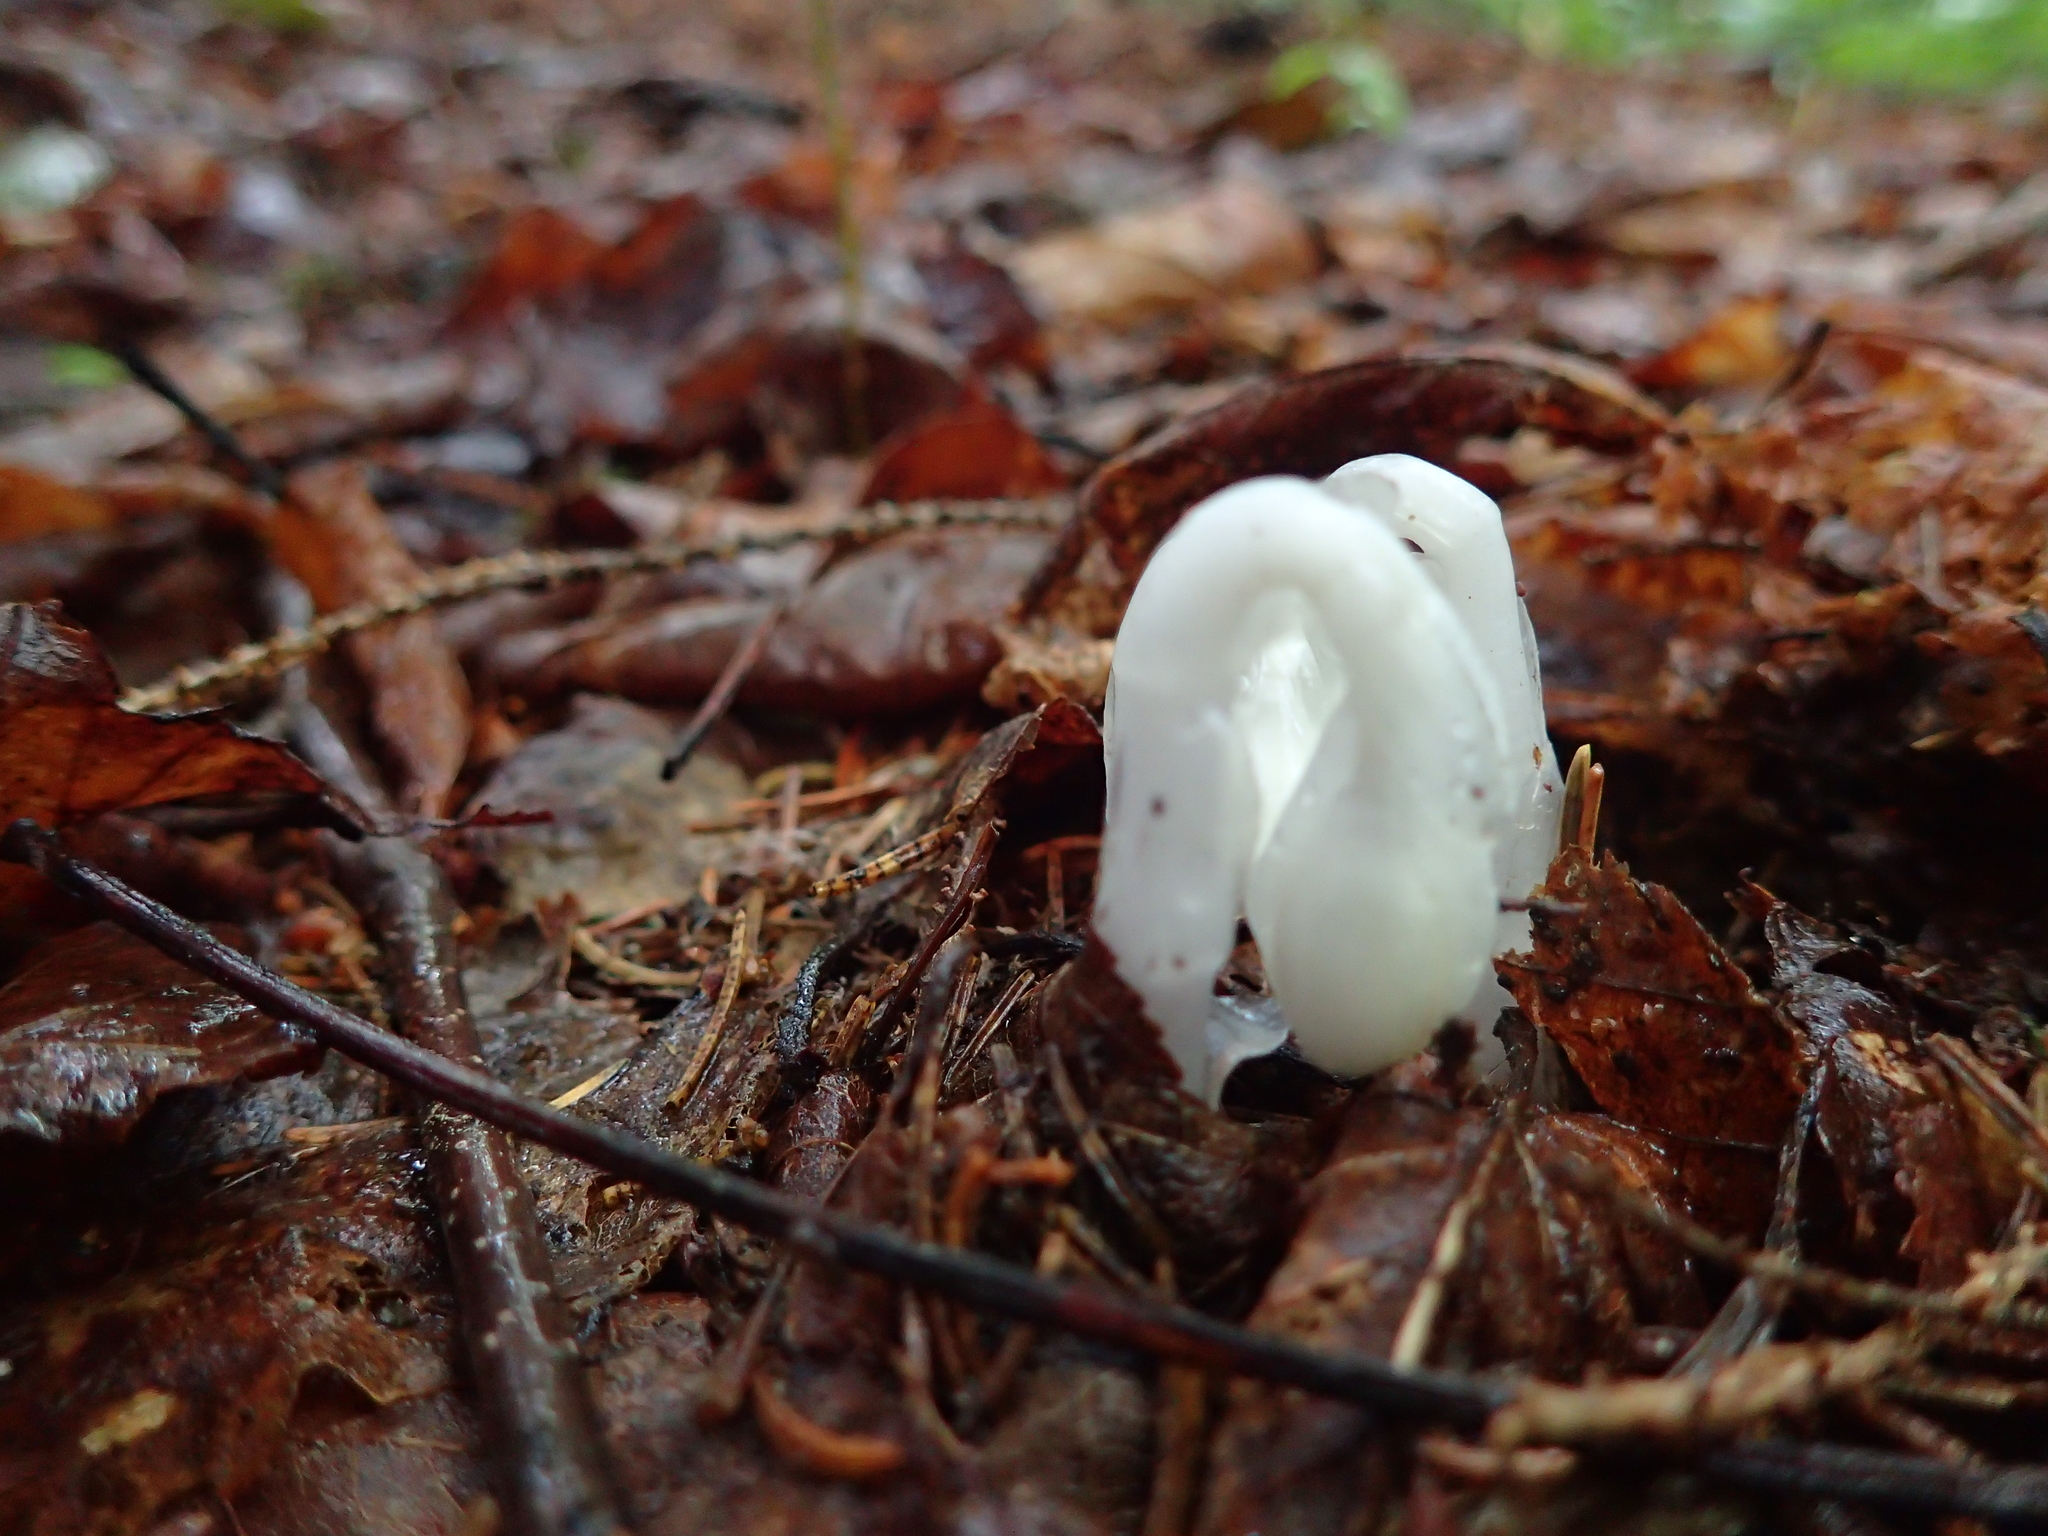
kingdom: Plantae
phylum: Tracheophyta
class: Magnoliopsida
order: Ericales
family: Ericaceae
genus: Monotropa
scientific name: Monotropa uniflora
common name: Convulsion root
